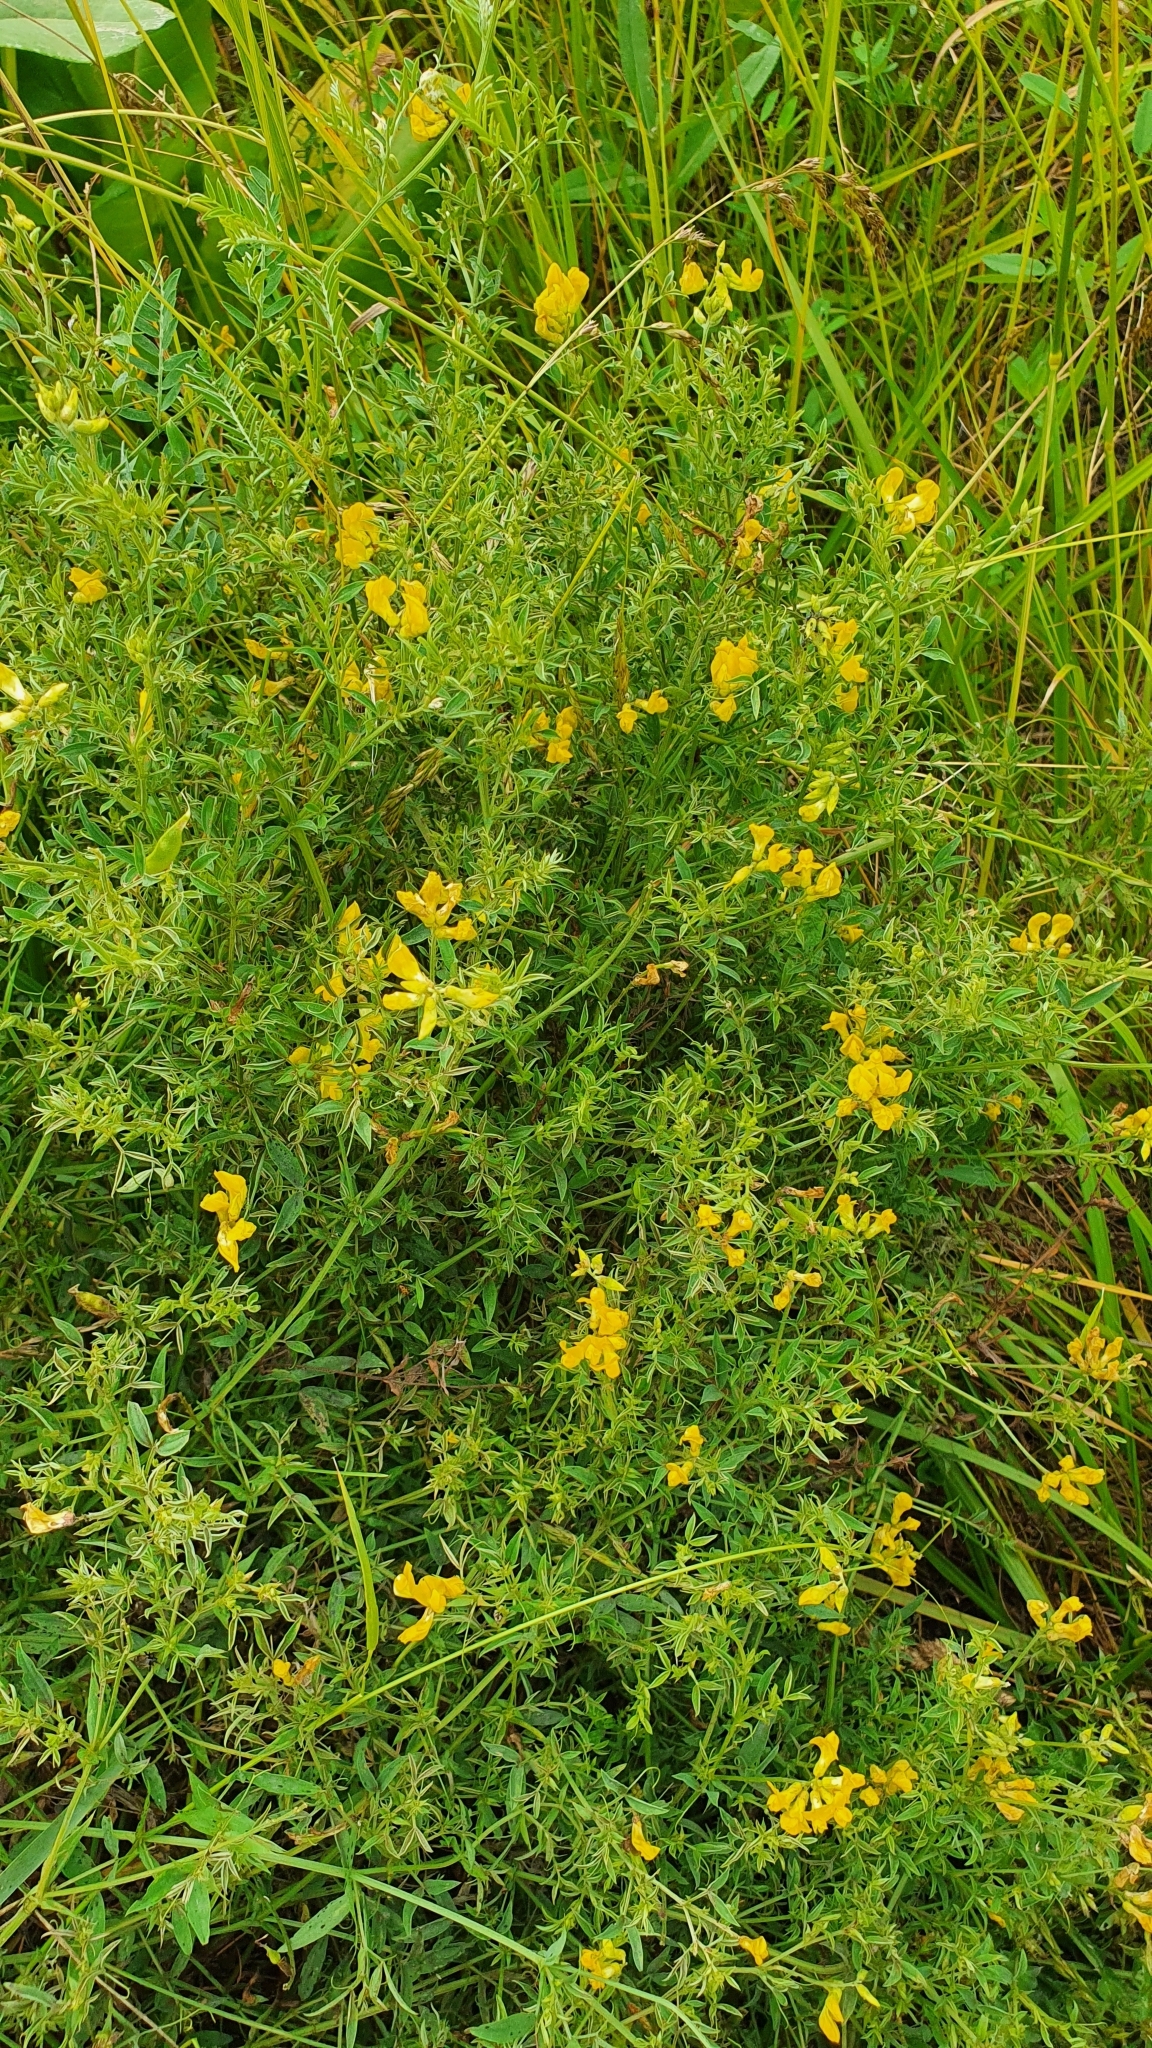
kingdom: Plantae
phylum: Tracheophyta
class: Magnoliopsida
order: Fabales
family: Fabaceae
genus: Lathyrus
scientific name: Lathyrus pratensis
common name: Meadow vetchling
